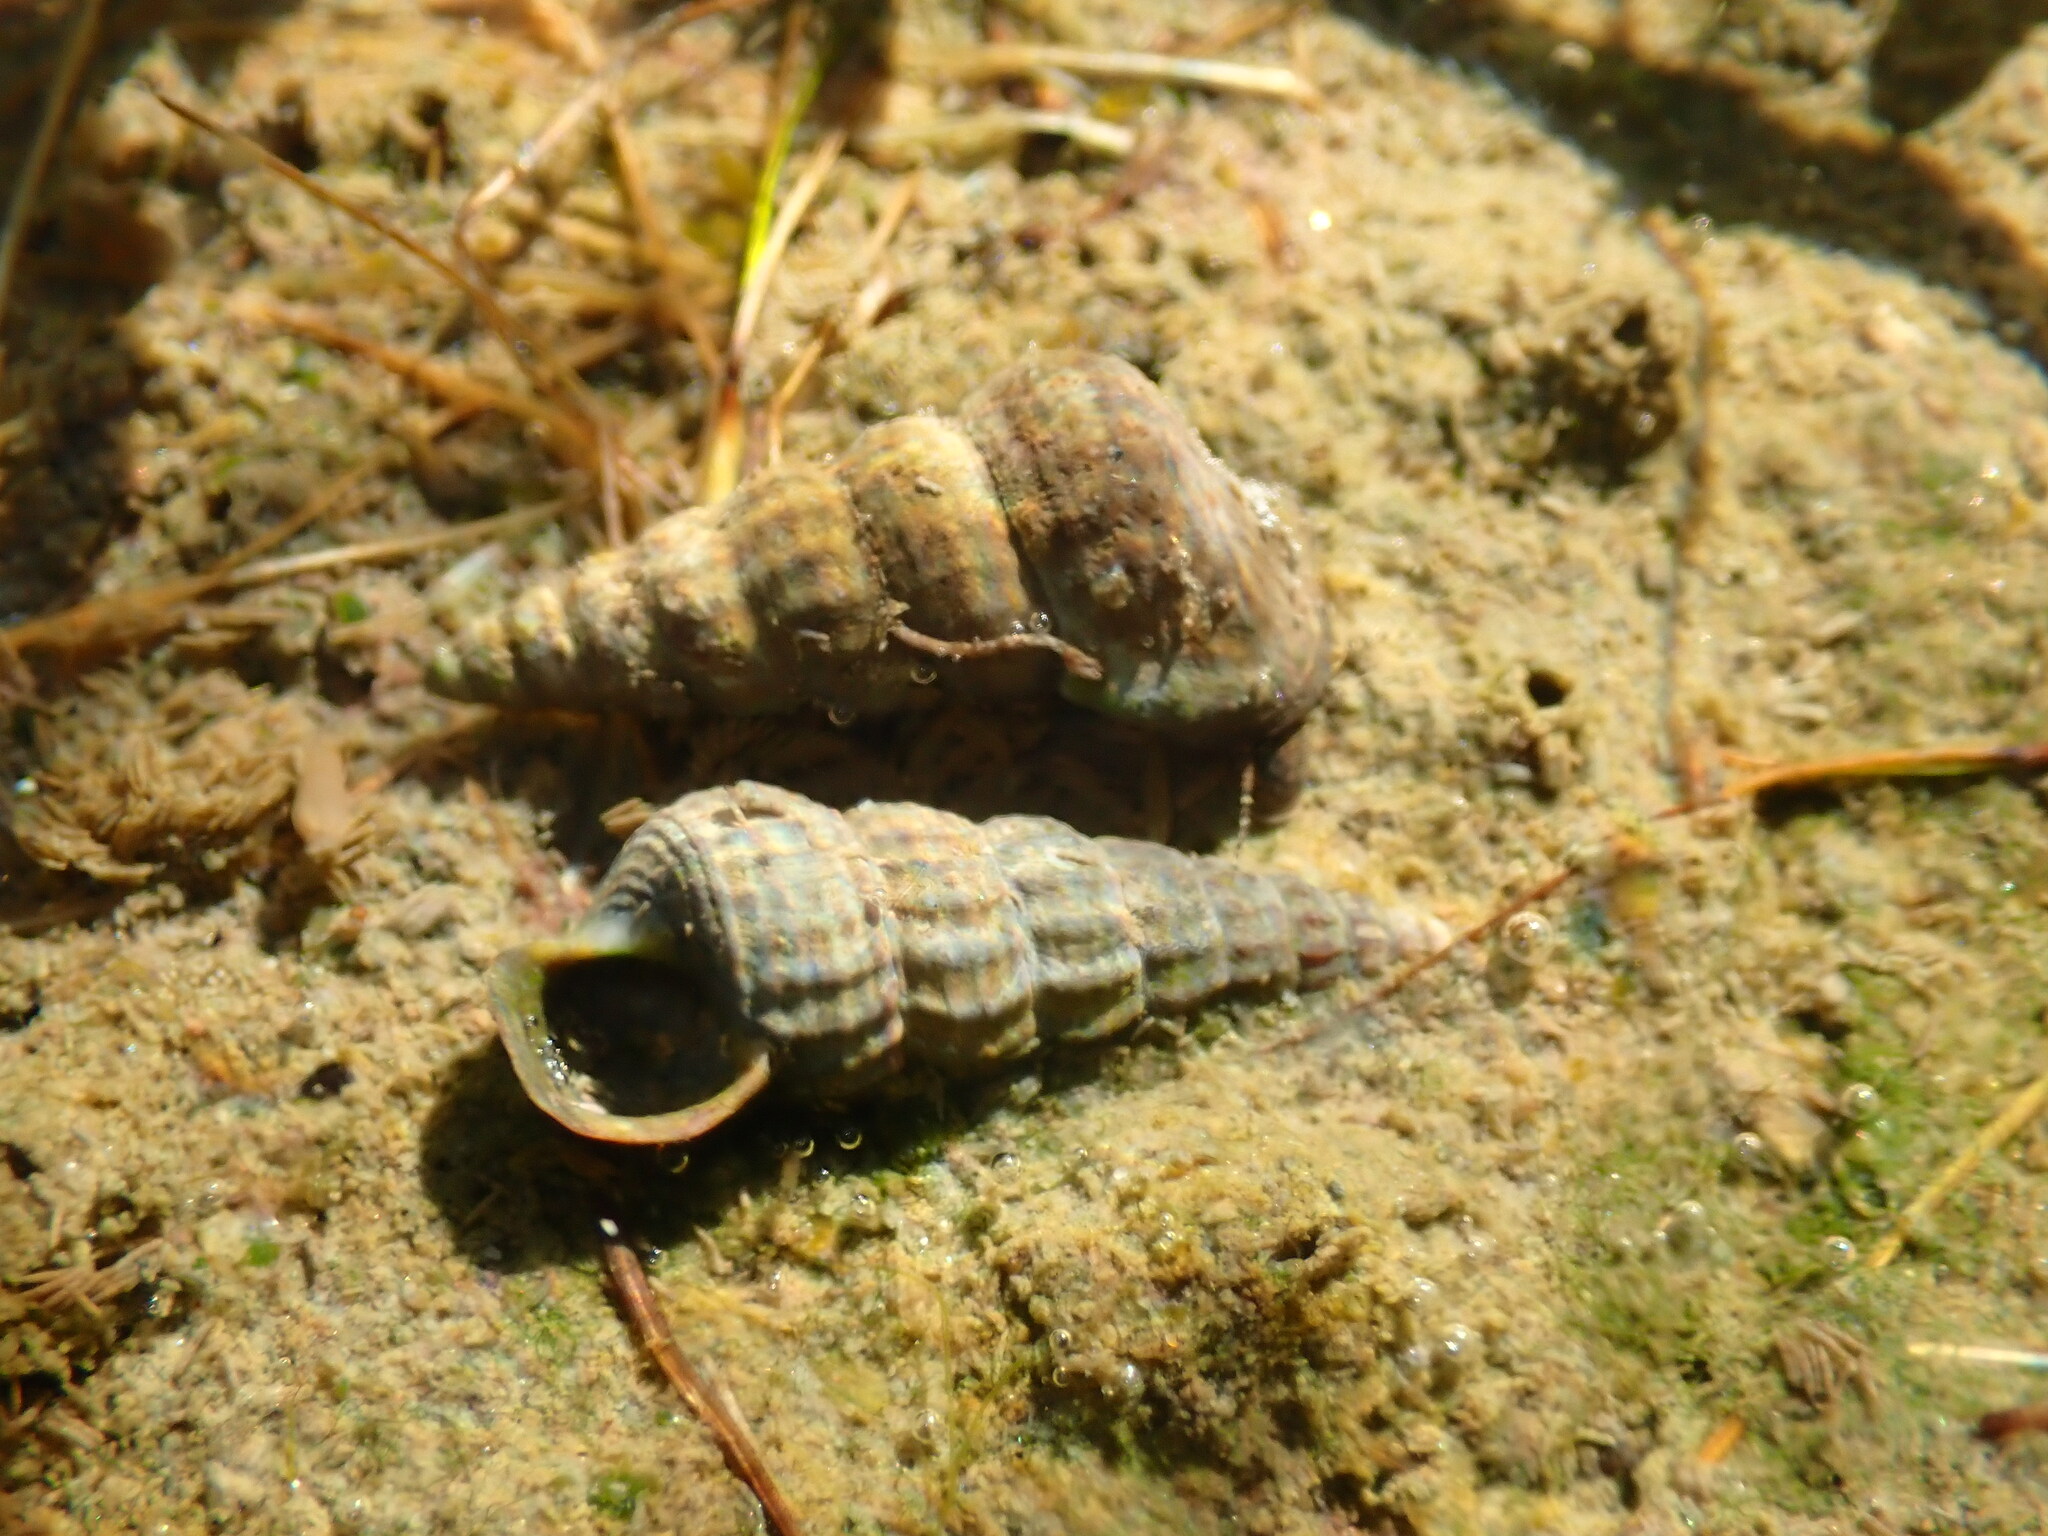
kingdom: Animalia
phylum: Mollusca
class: Gastropoda
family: Potamididae
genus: Cerithideopsis
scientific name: Cerithideopsis californica
